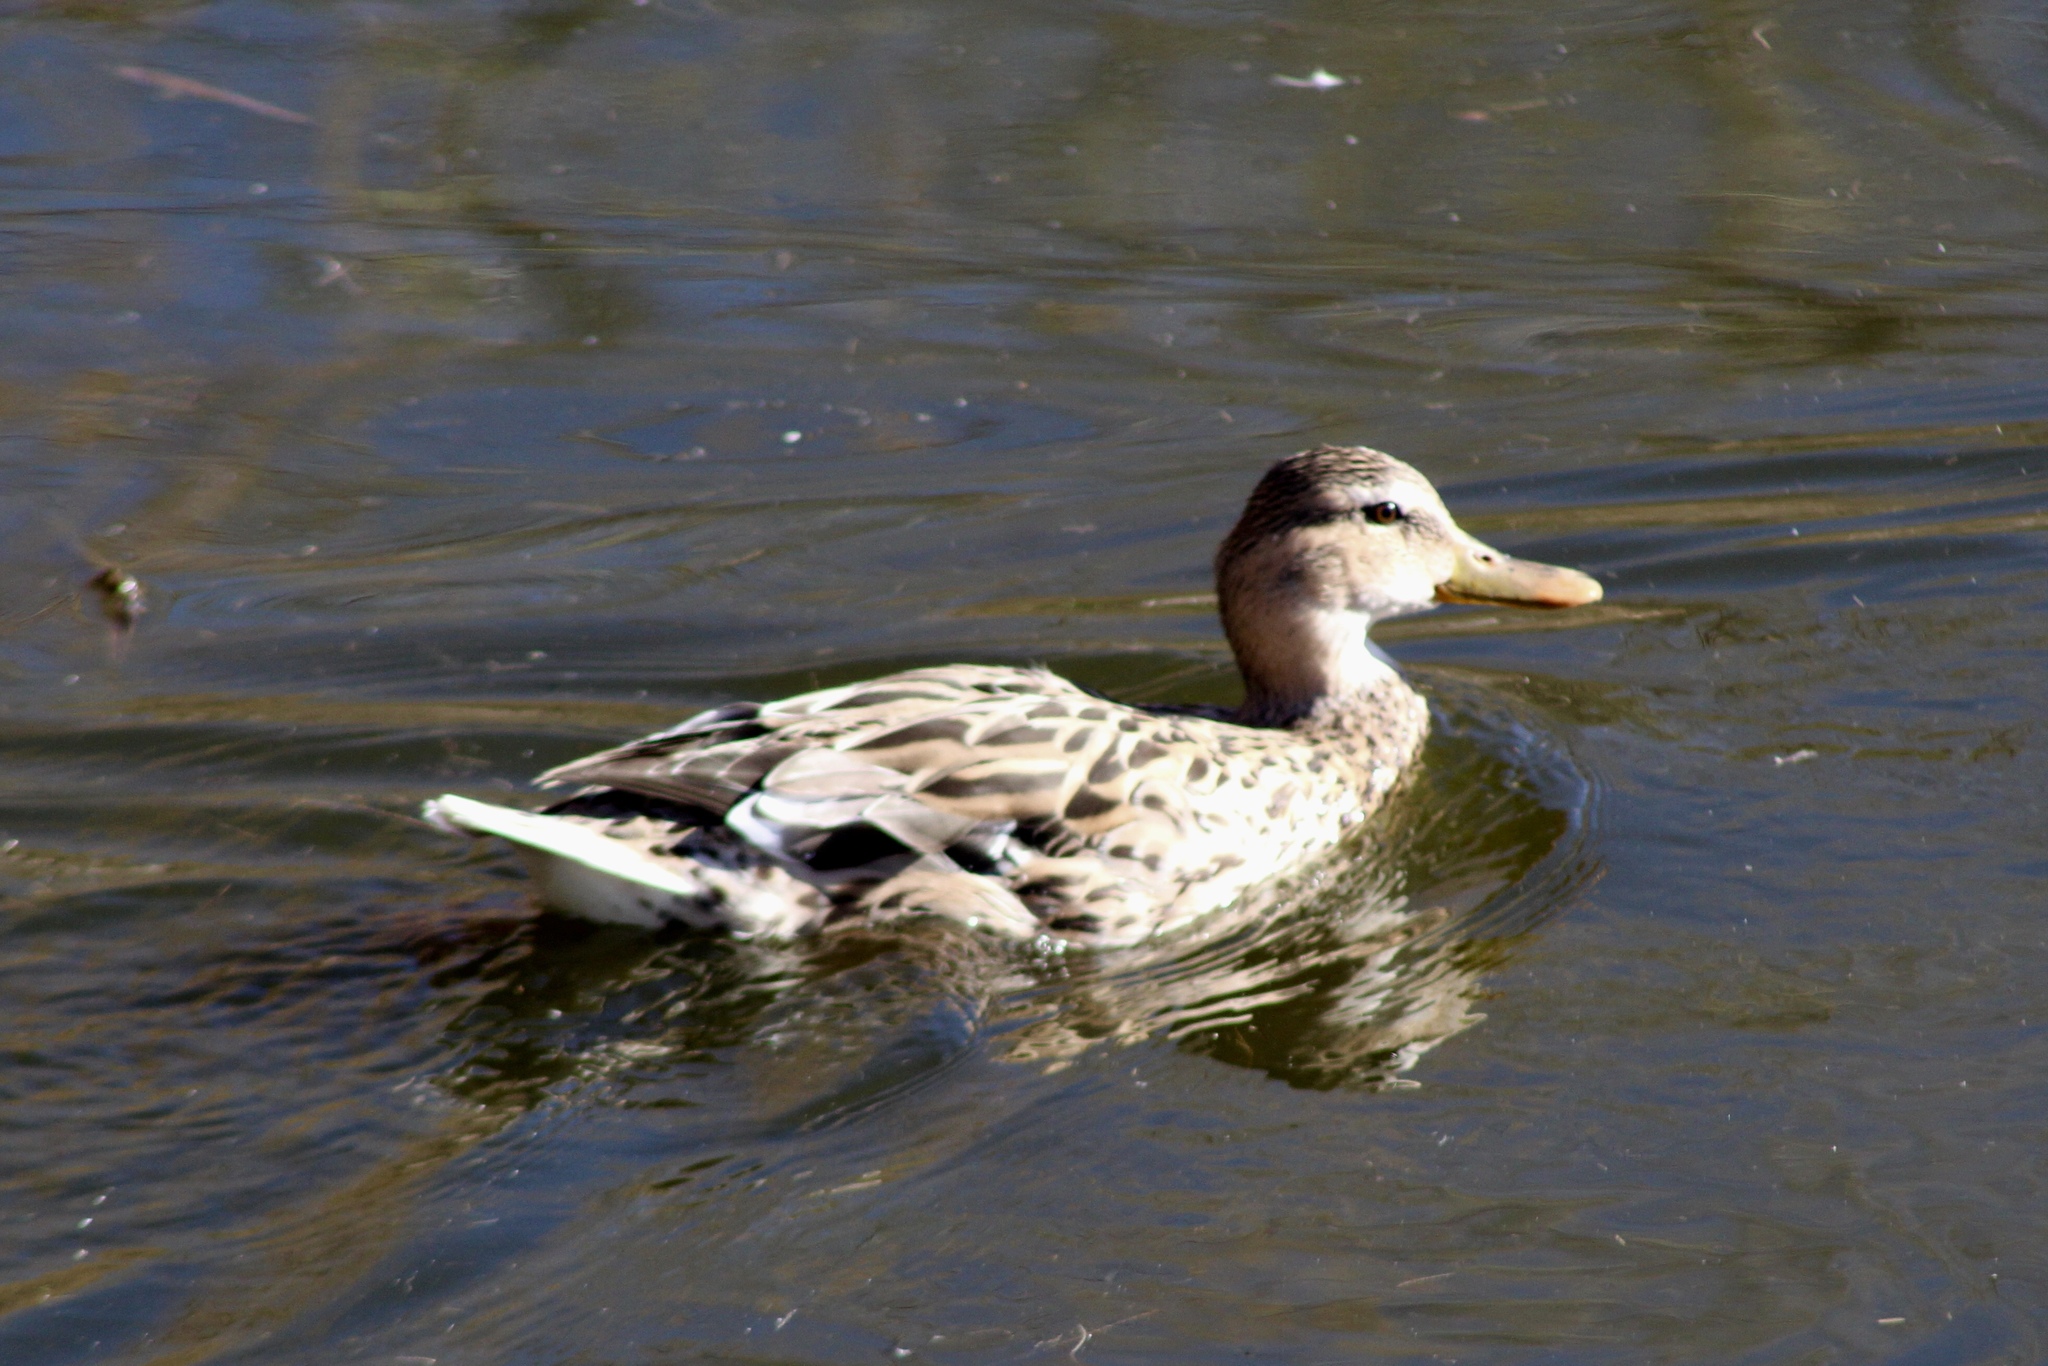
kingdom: Animalia
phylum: Chordata
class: Aves
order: Anseriformes
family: Anatidae
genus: Anas
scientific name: Anas platyrhynchos
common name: Mallard
